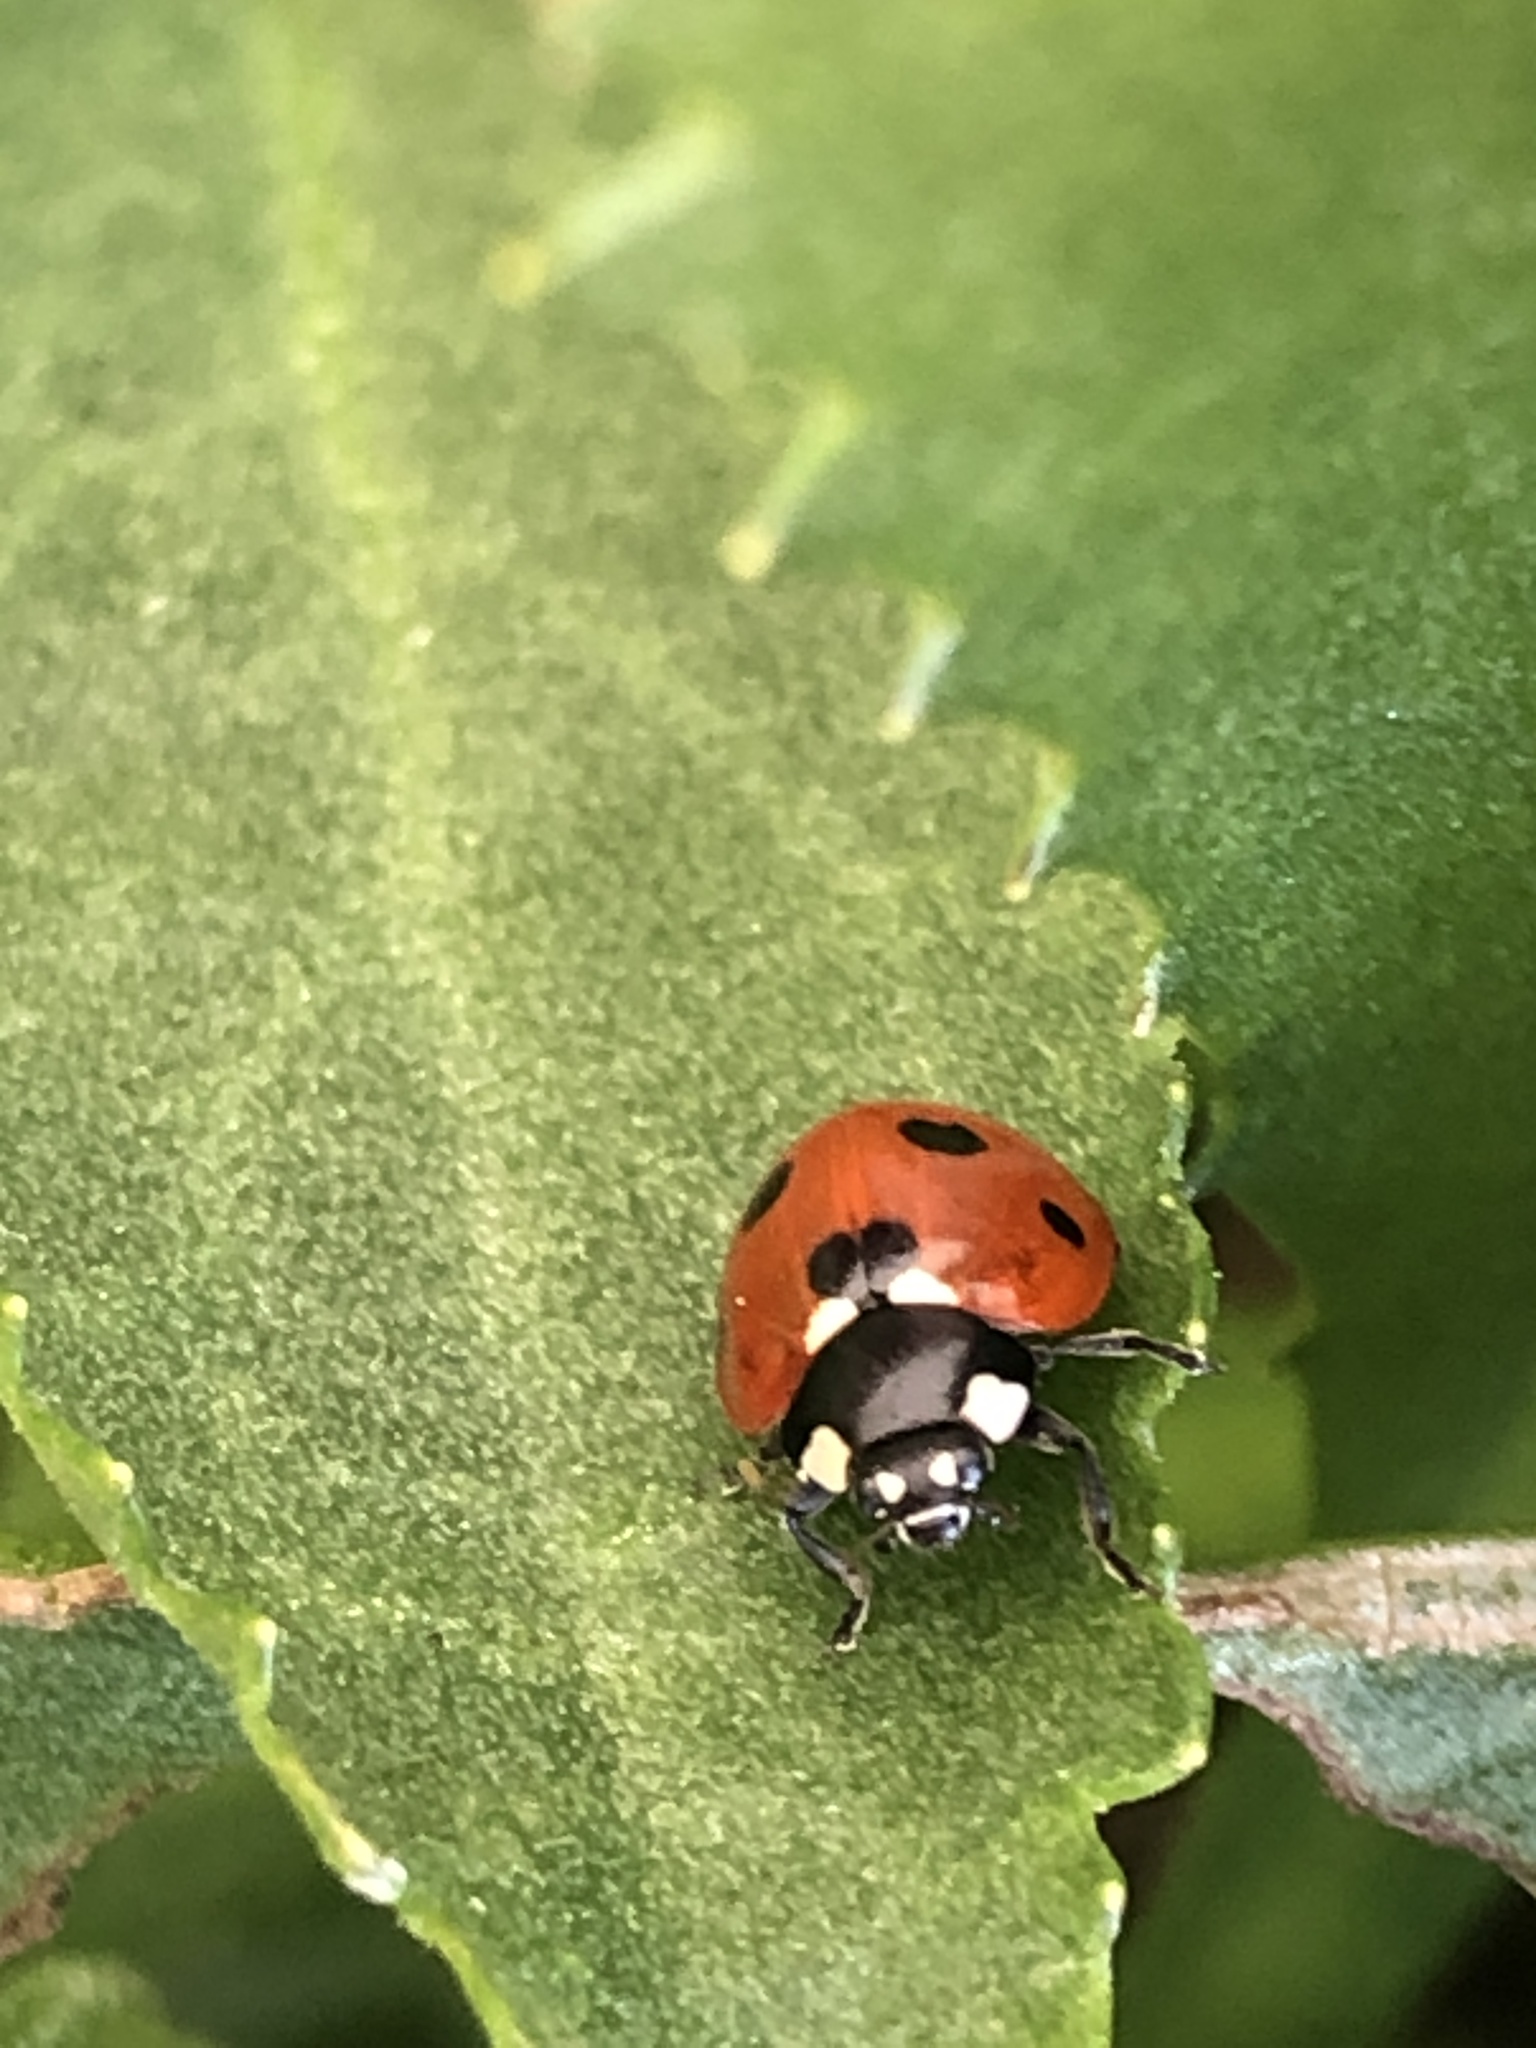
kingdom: Animalia
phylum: Arthropoda
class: Insecta
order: Coleoptera
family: Coccinellidae
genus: Coccinella
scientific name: Coccinella septempunctata
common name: Sevenspotted lady beetle
